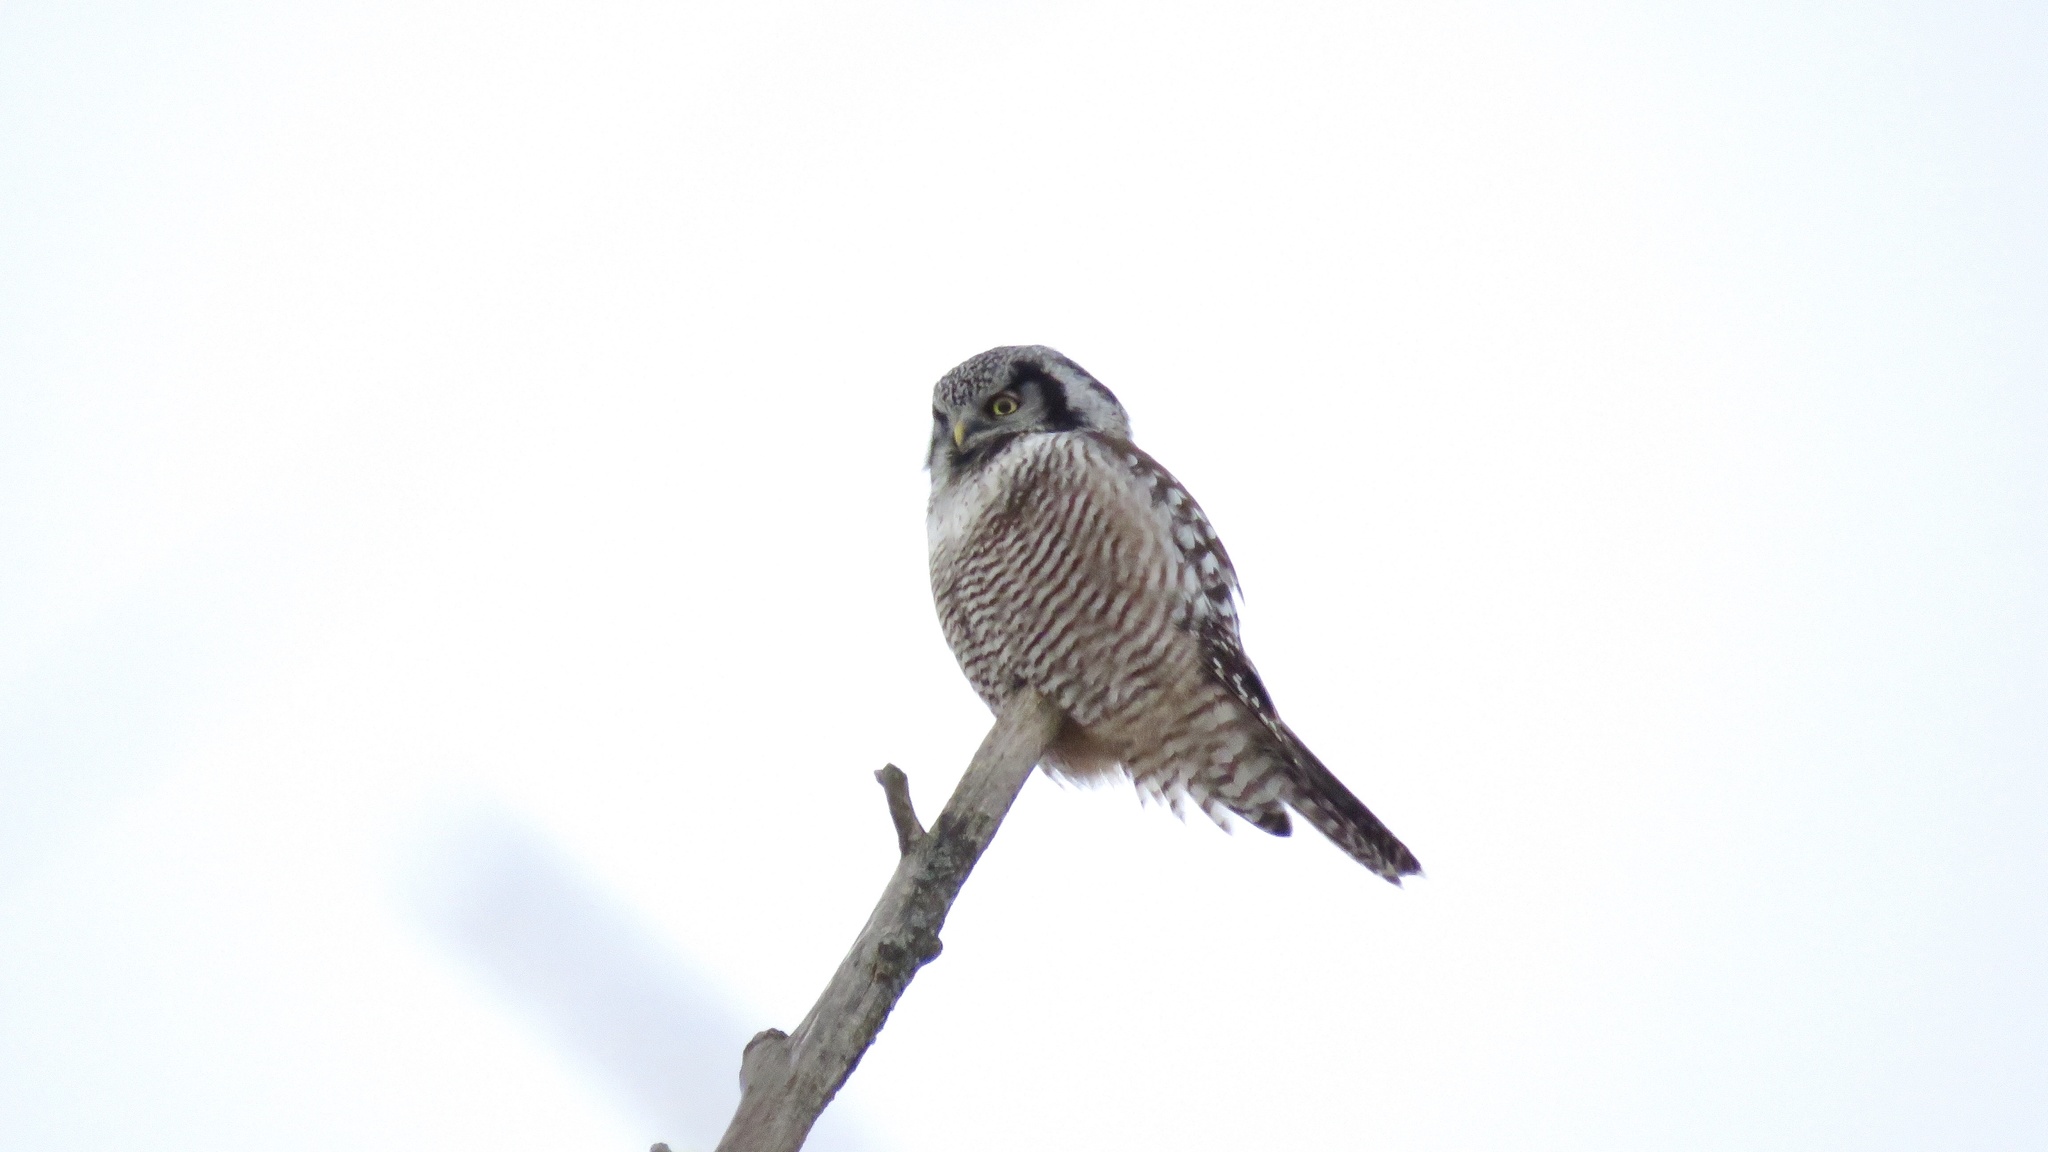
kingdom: Animalia
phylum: Chordata
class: Aves
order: Strigiformes
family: Strigidae
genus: Surnia
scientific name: Surnia ulula
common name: Northern hawk-owl
